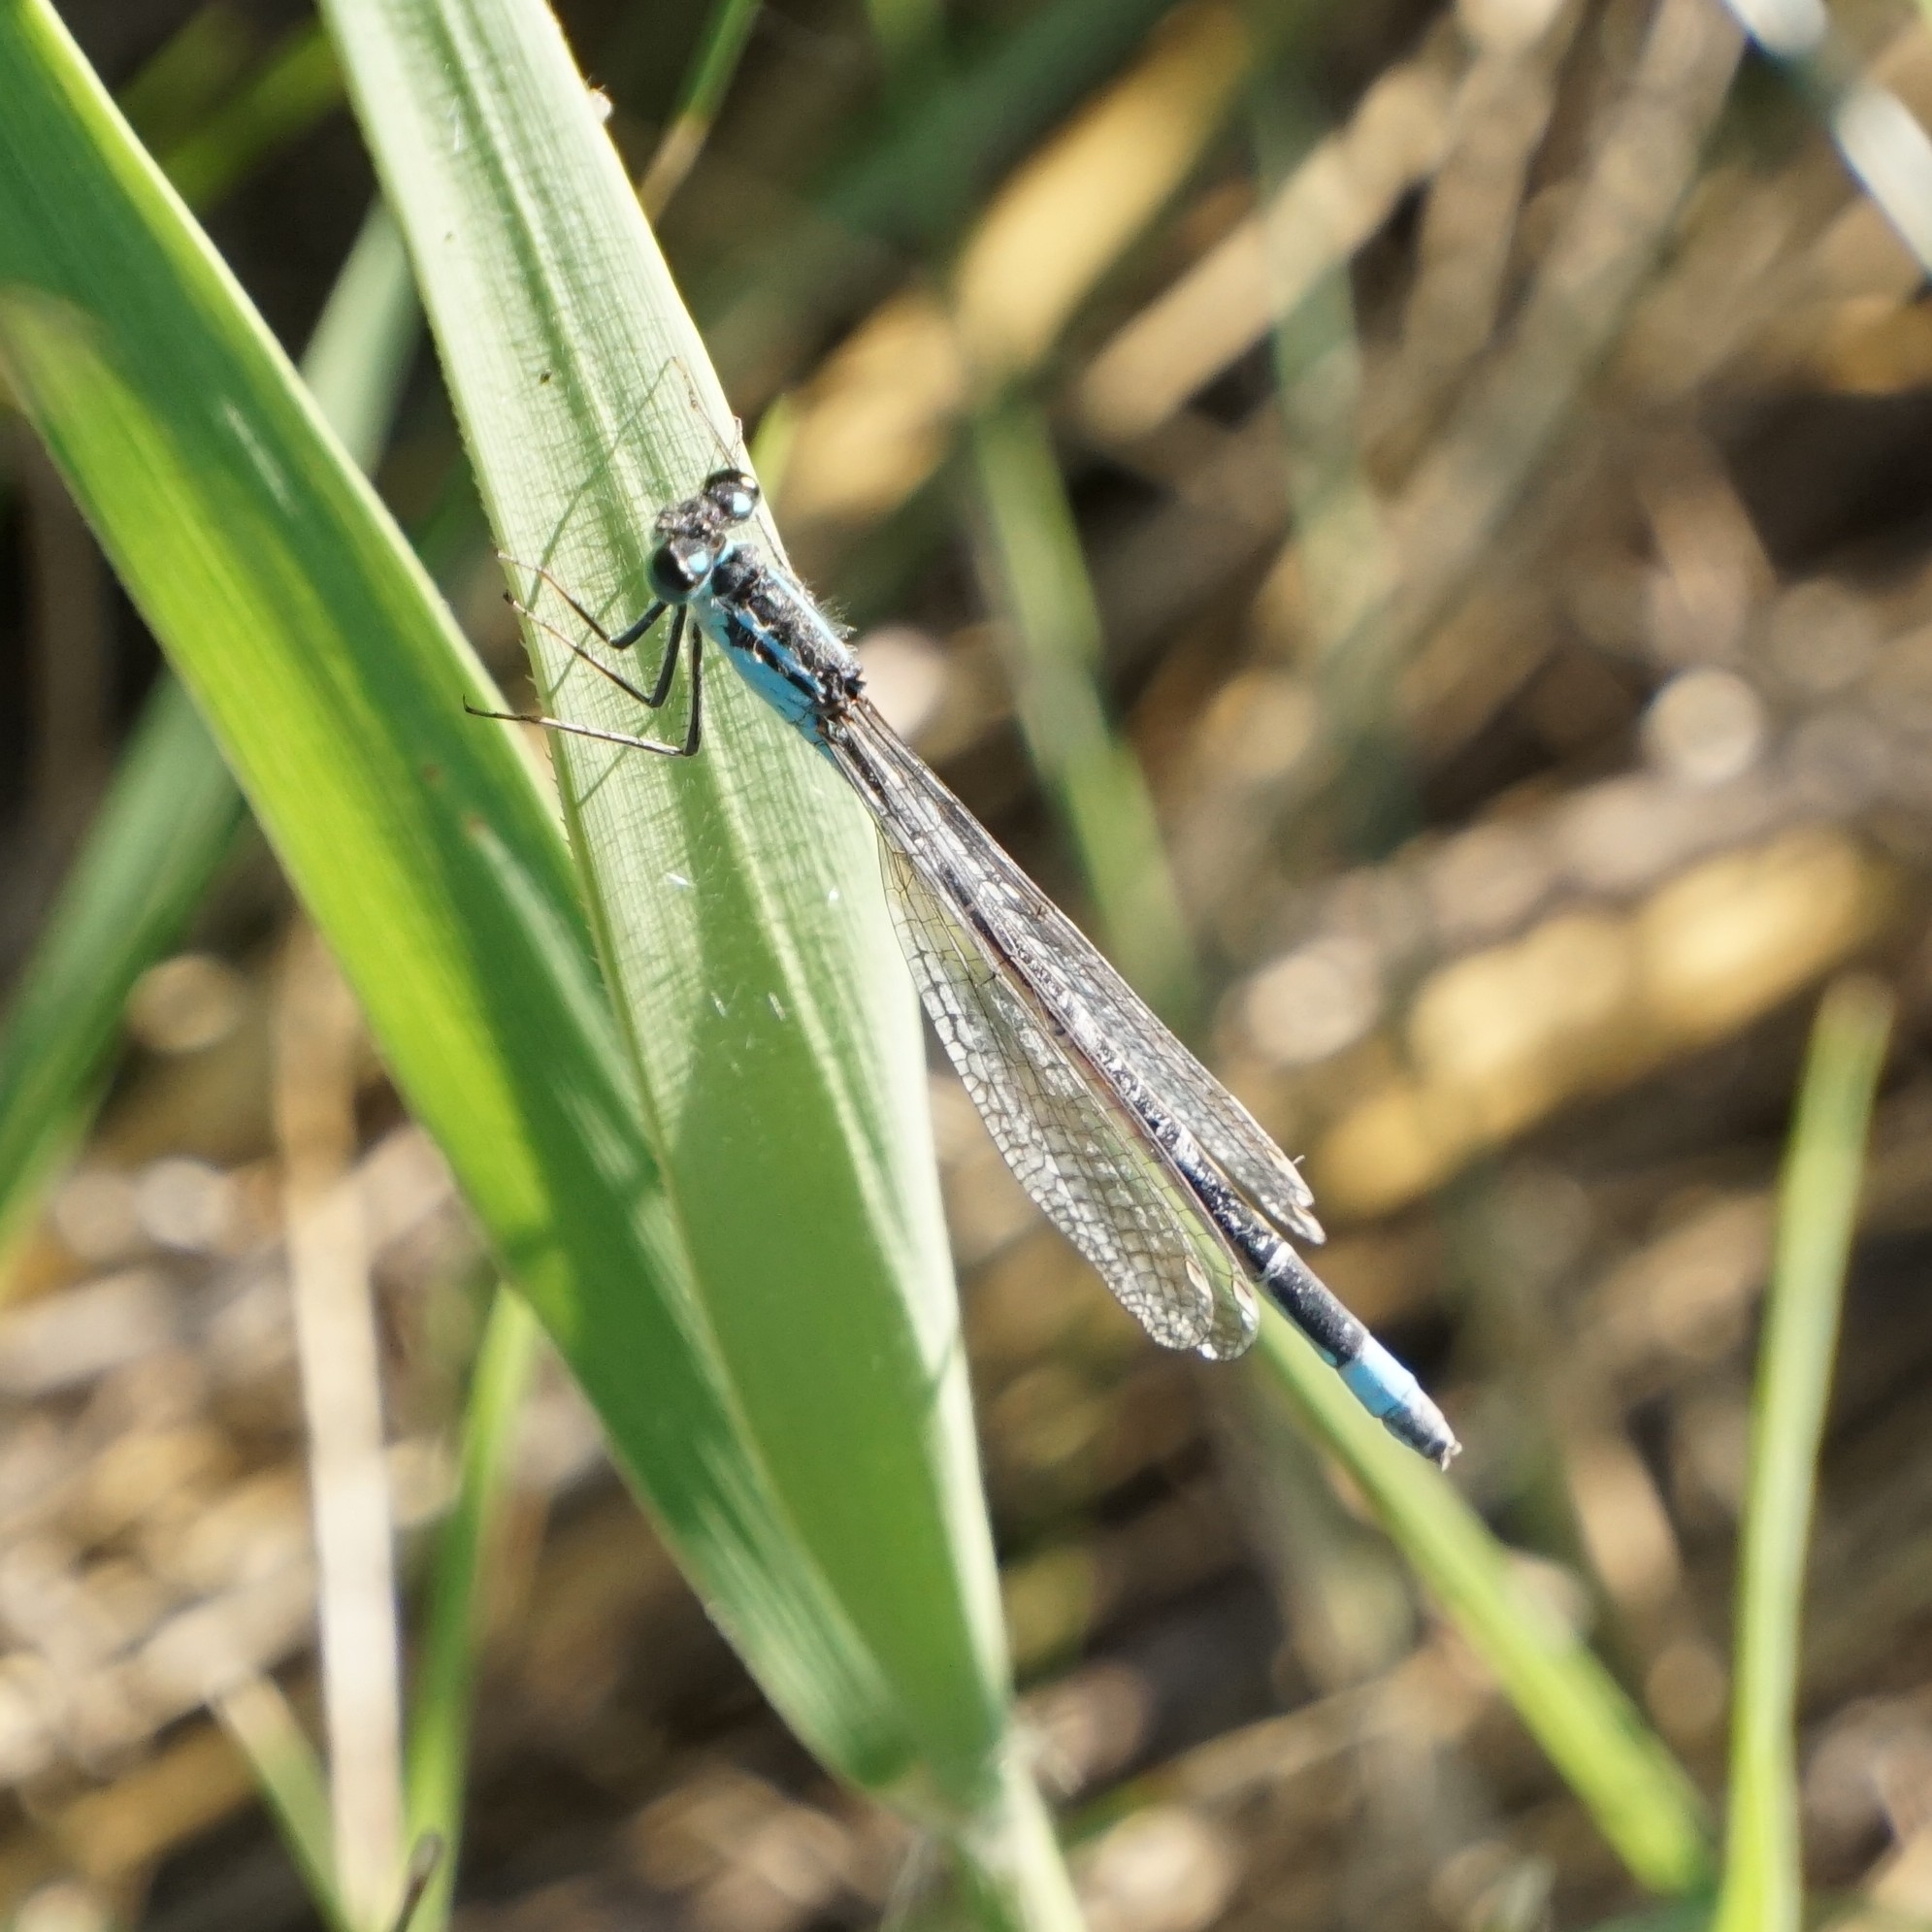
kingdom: Animalia
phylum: Arthropoda
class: Insecta
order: Odonata
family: Coenagrionidae
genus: Ischnura
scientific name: Ischnura elegans
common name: Blue-tailed damselfly
